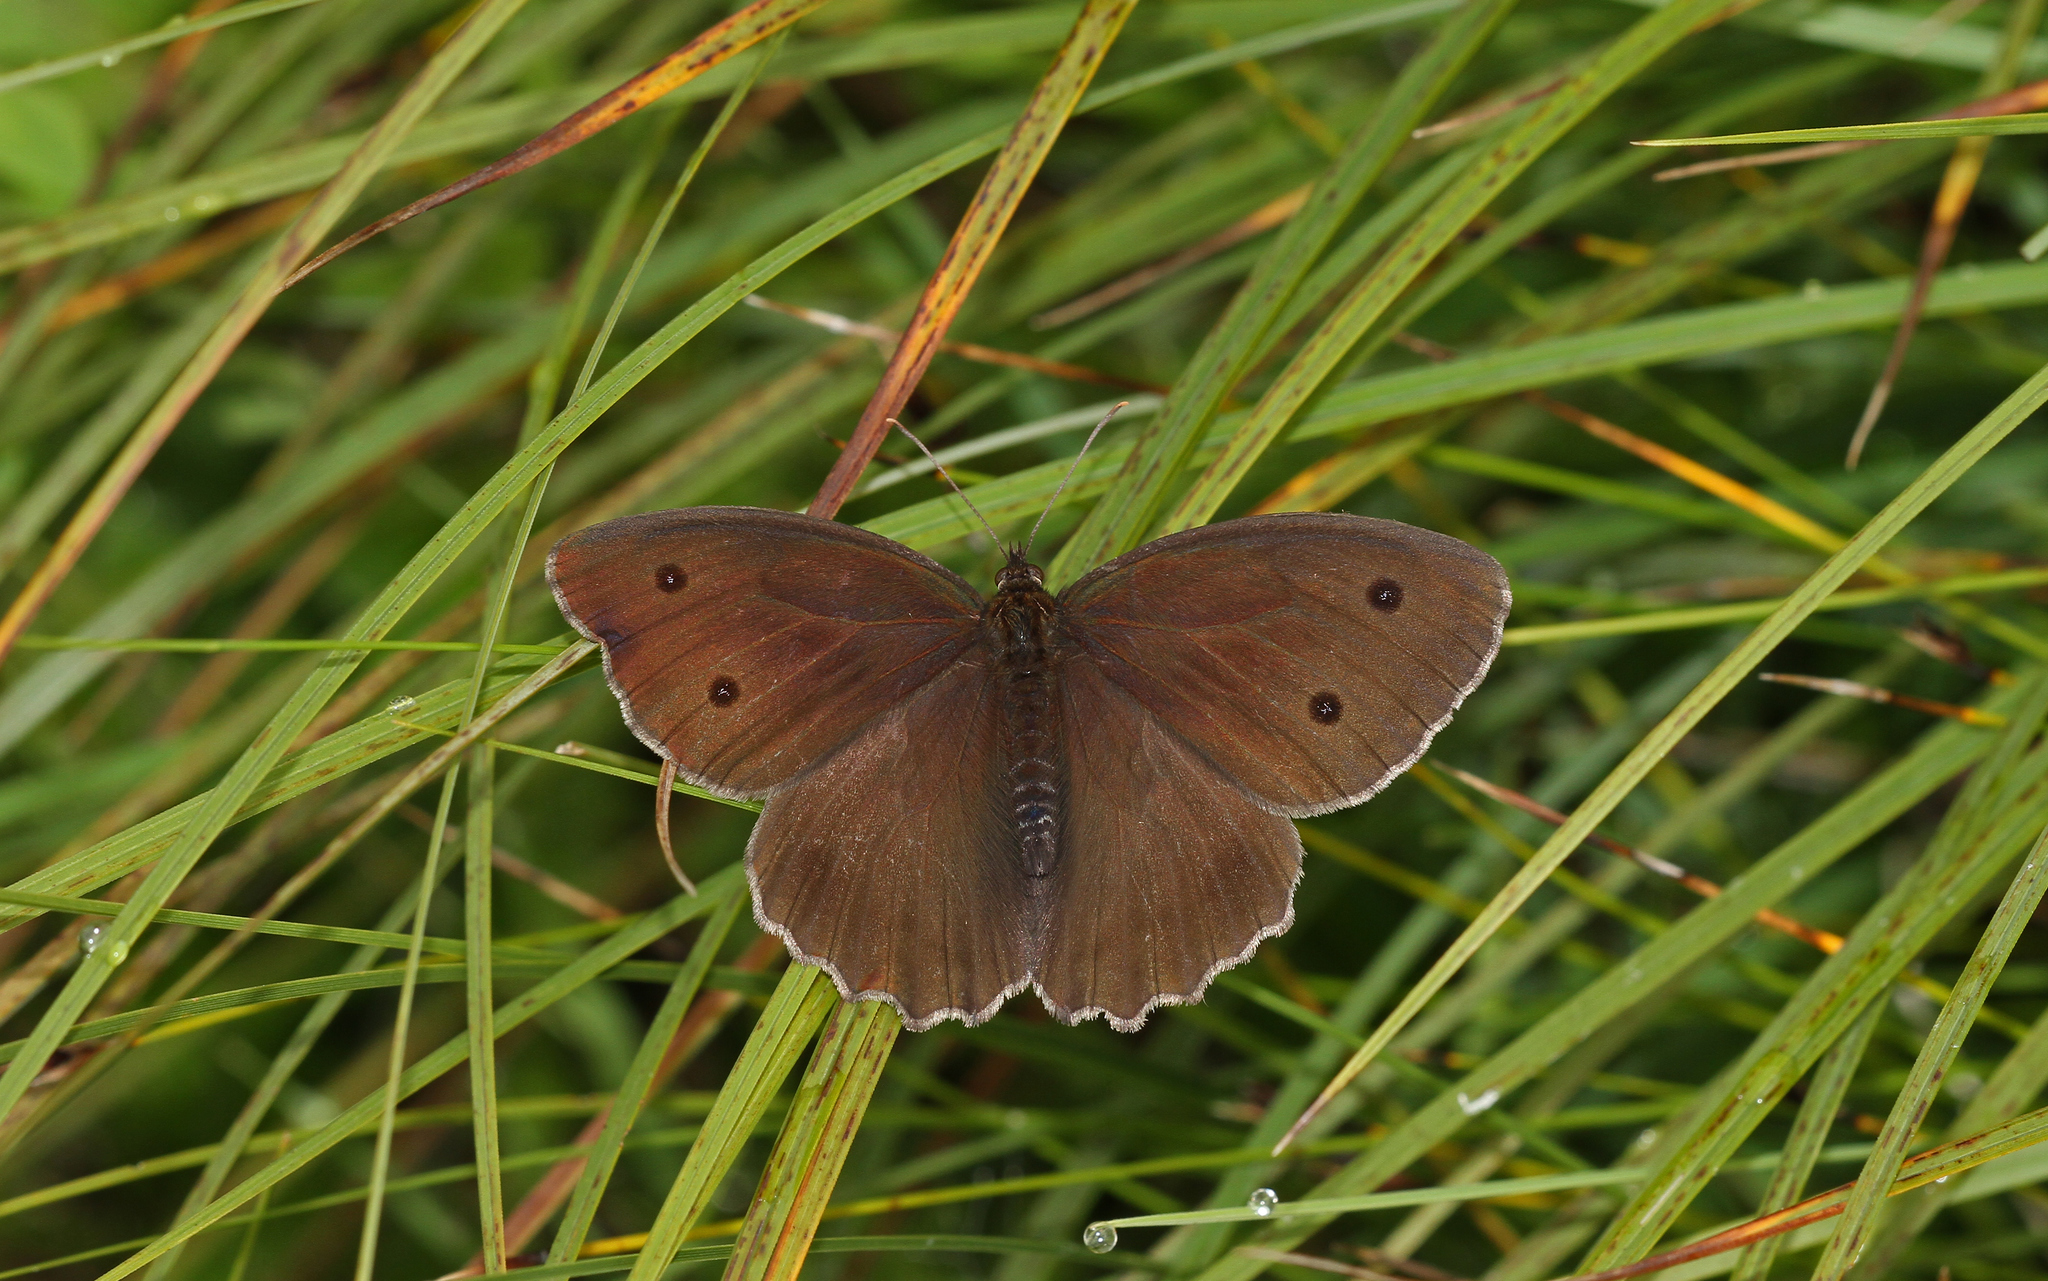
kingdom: Animalia
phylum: Arthropoda
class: Insecta
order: Lepidoptera
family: Nymphalidae
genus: Minois
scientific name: Minois dryas
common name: Dryad
